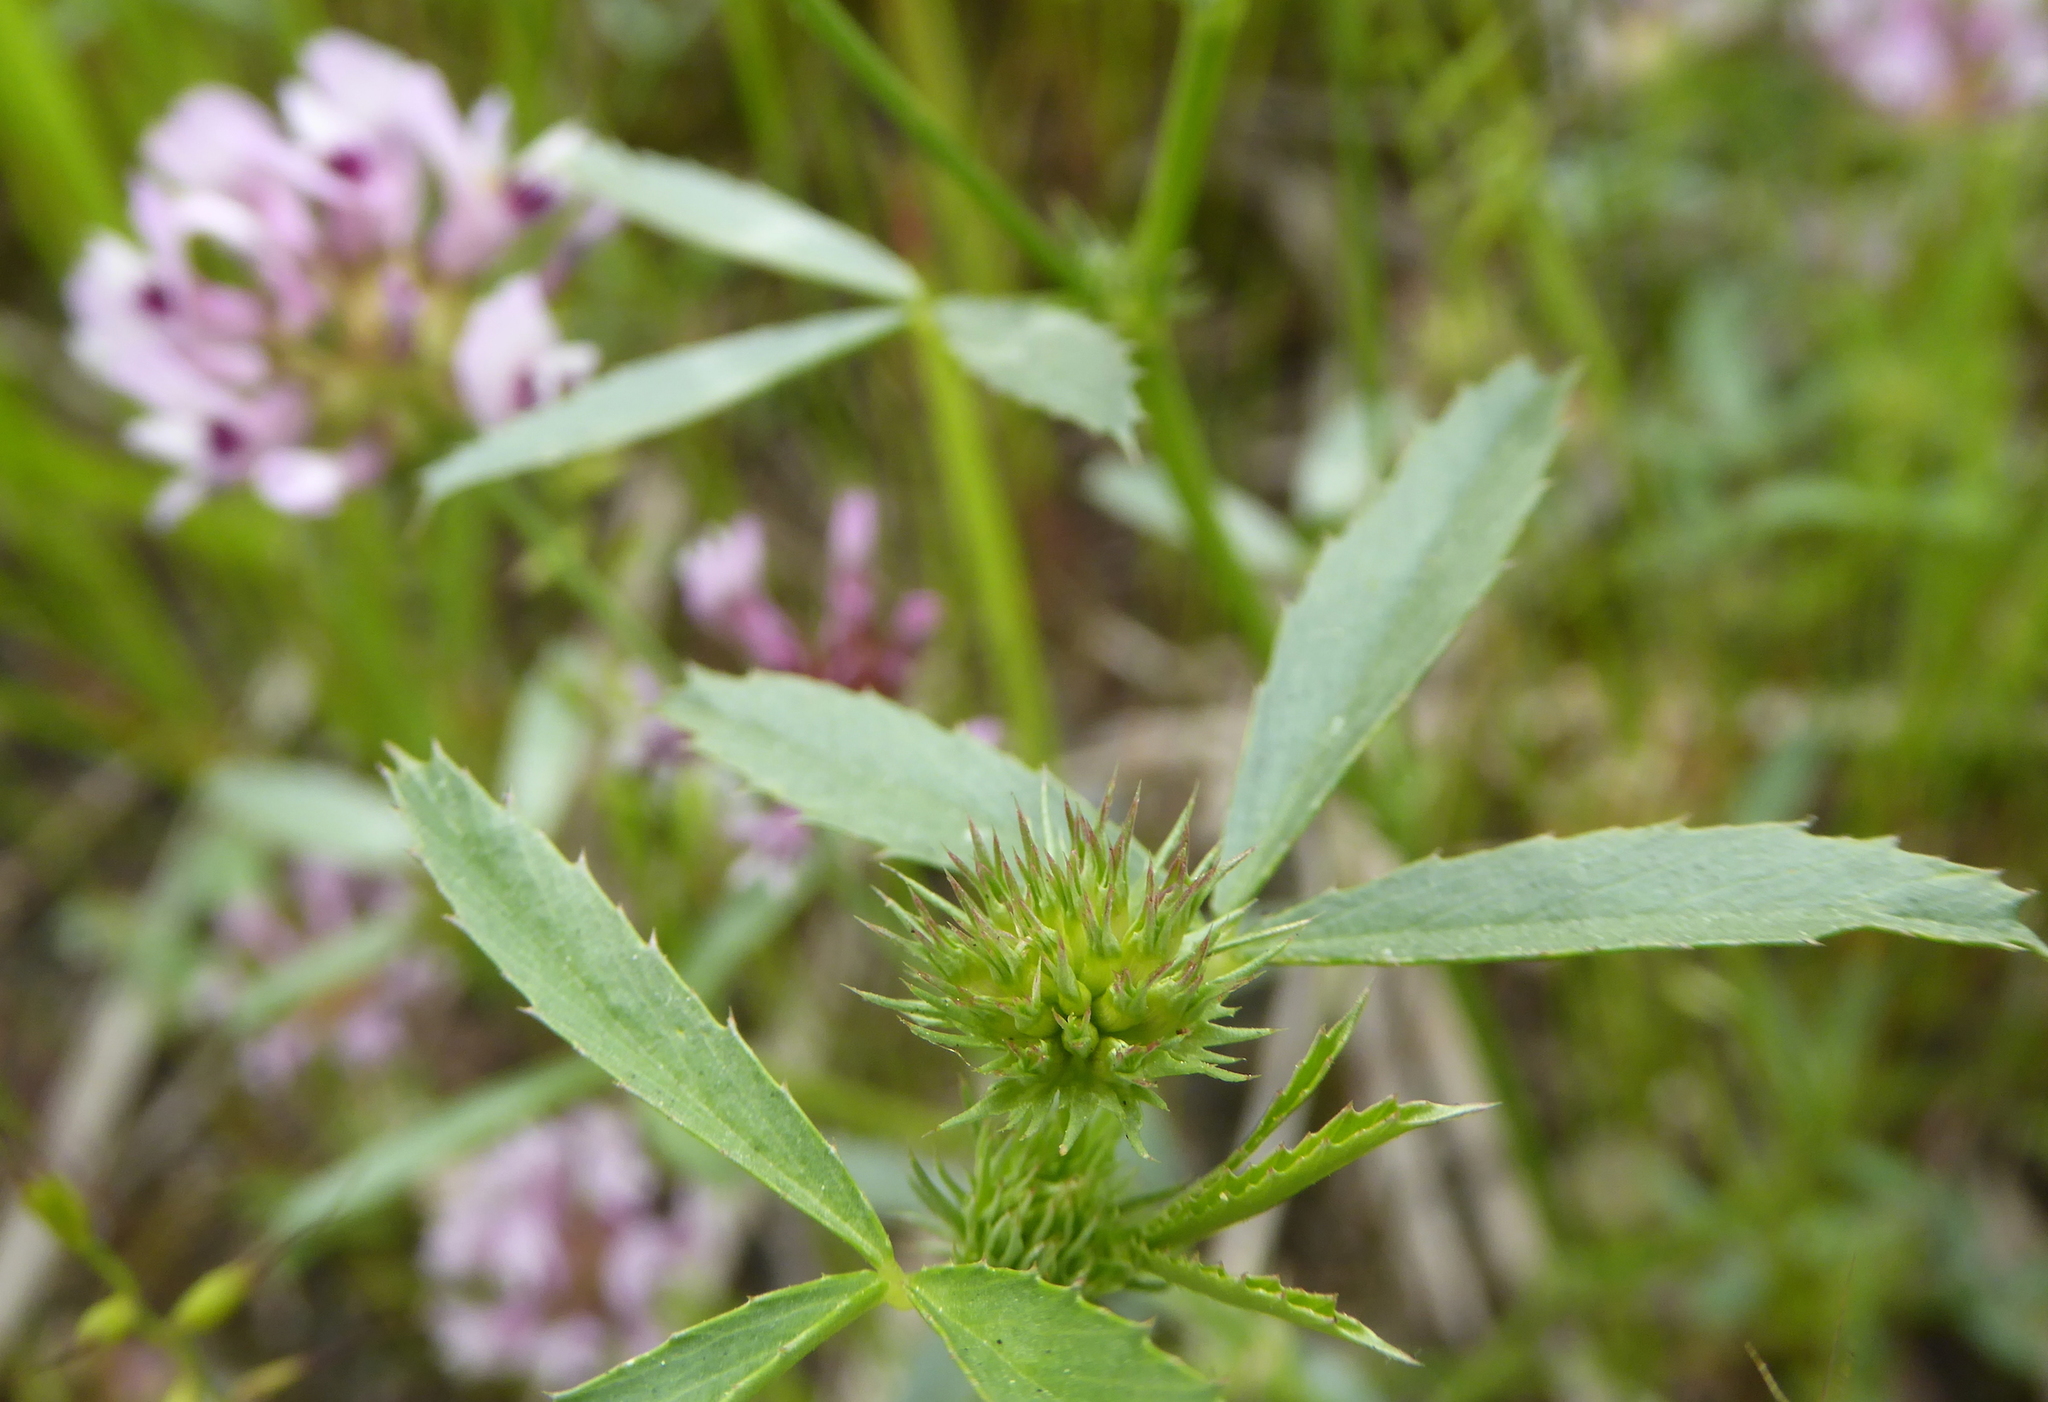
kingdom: Plantae
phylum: Tracheophyta
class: Magnoliopsida
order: Fabales
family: Fabaceae
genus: Trifolium
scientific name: Trifolium willdenovii
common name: Tomcat clover
